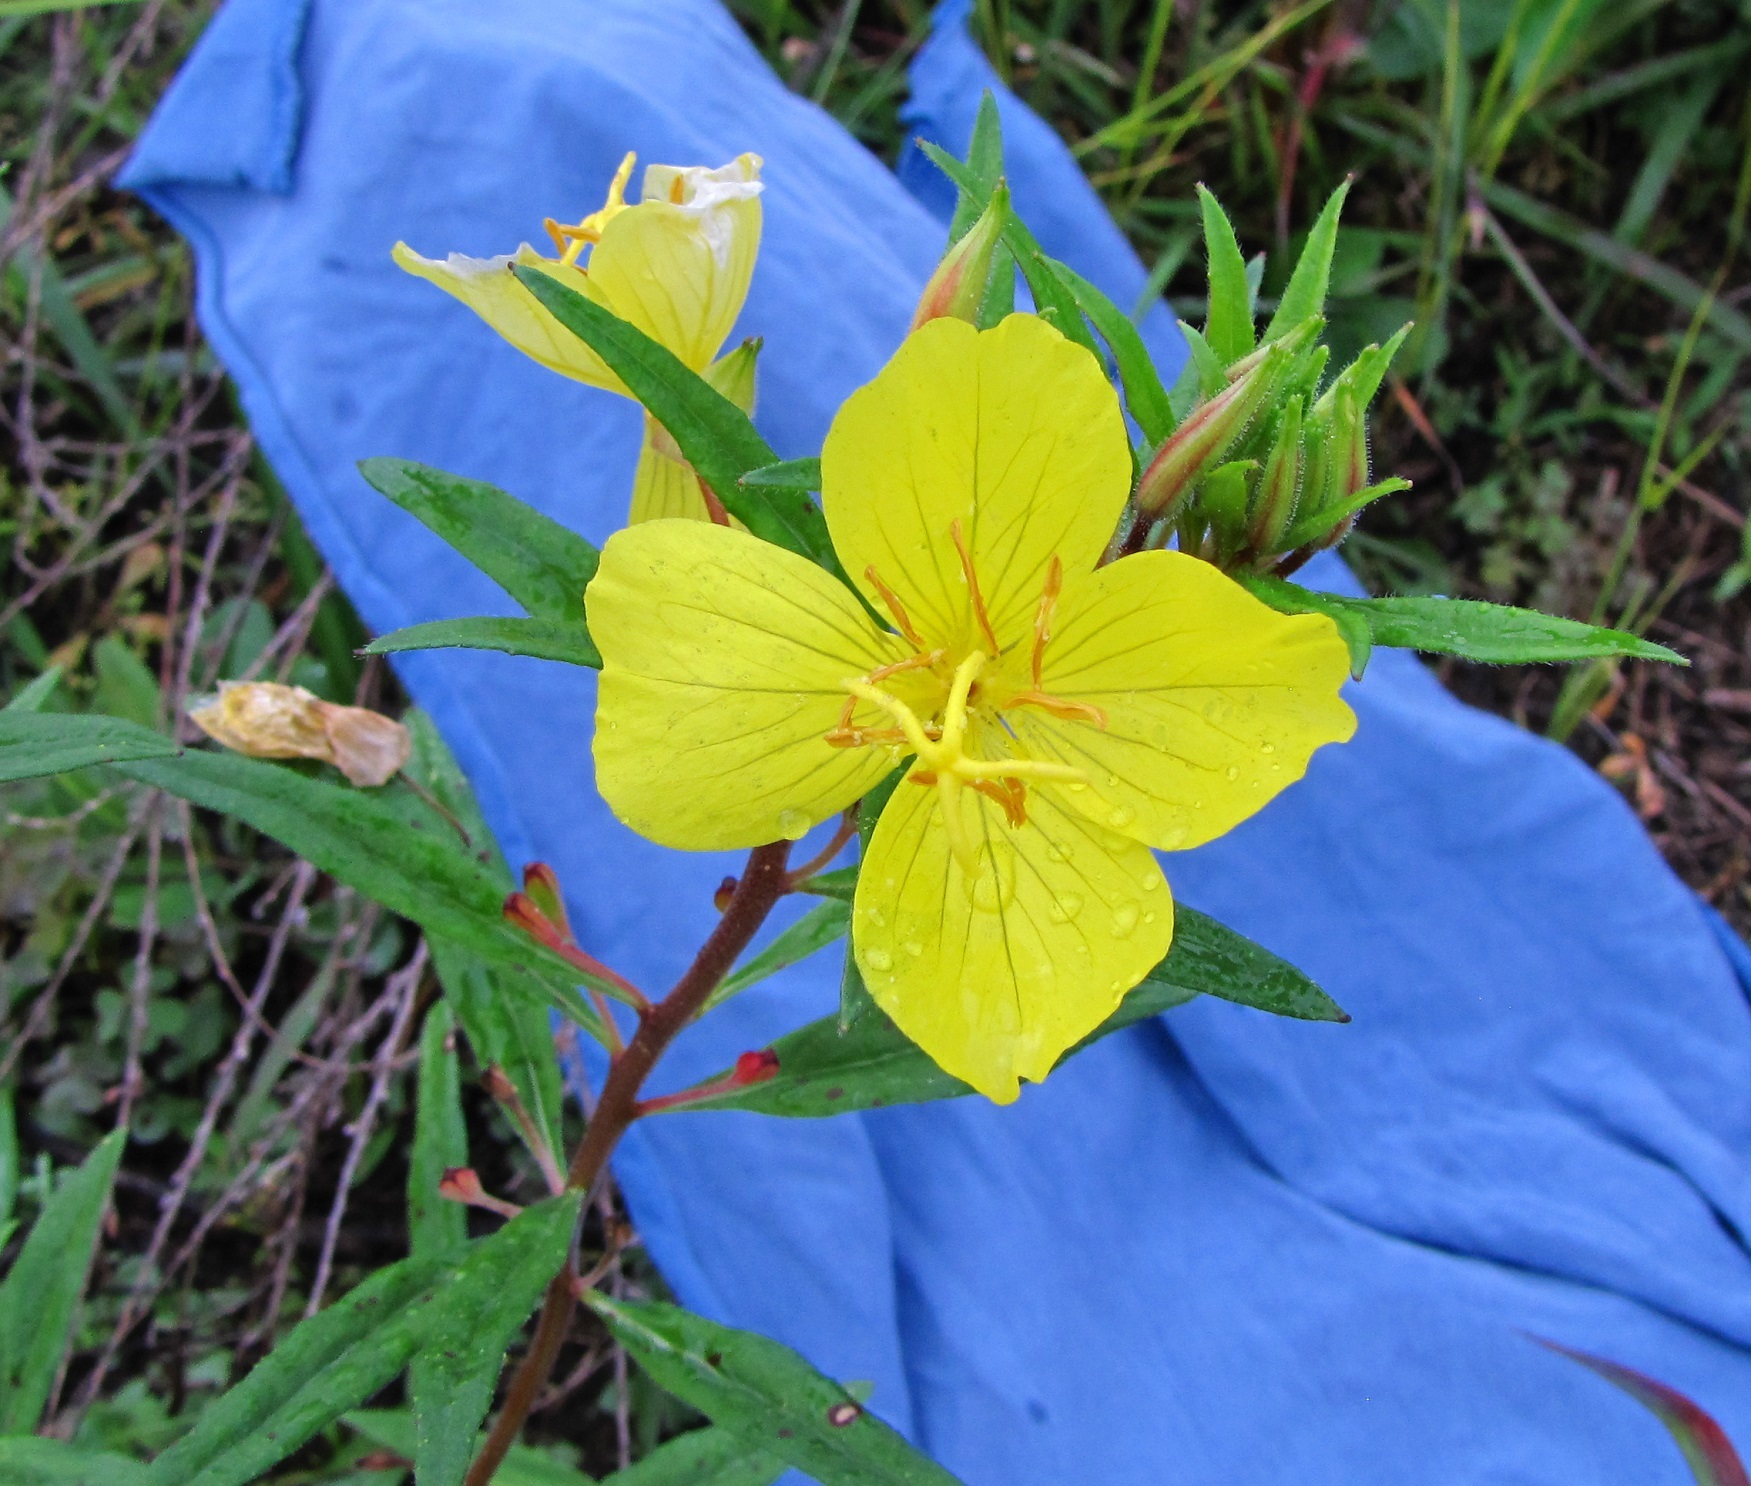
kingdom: Plantae
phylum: Tracheophyta
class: Magnoliopsida
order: Myrtales
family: Onagraceae
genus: Oenothera
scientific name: Oenothera fruticosa
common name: Southern sundrops
